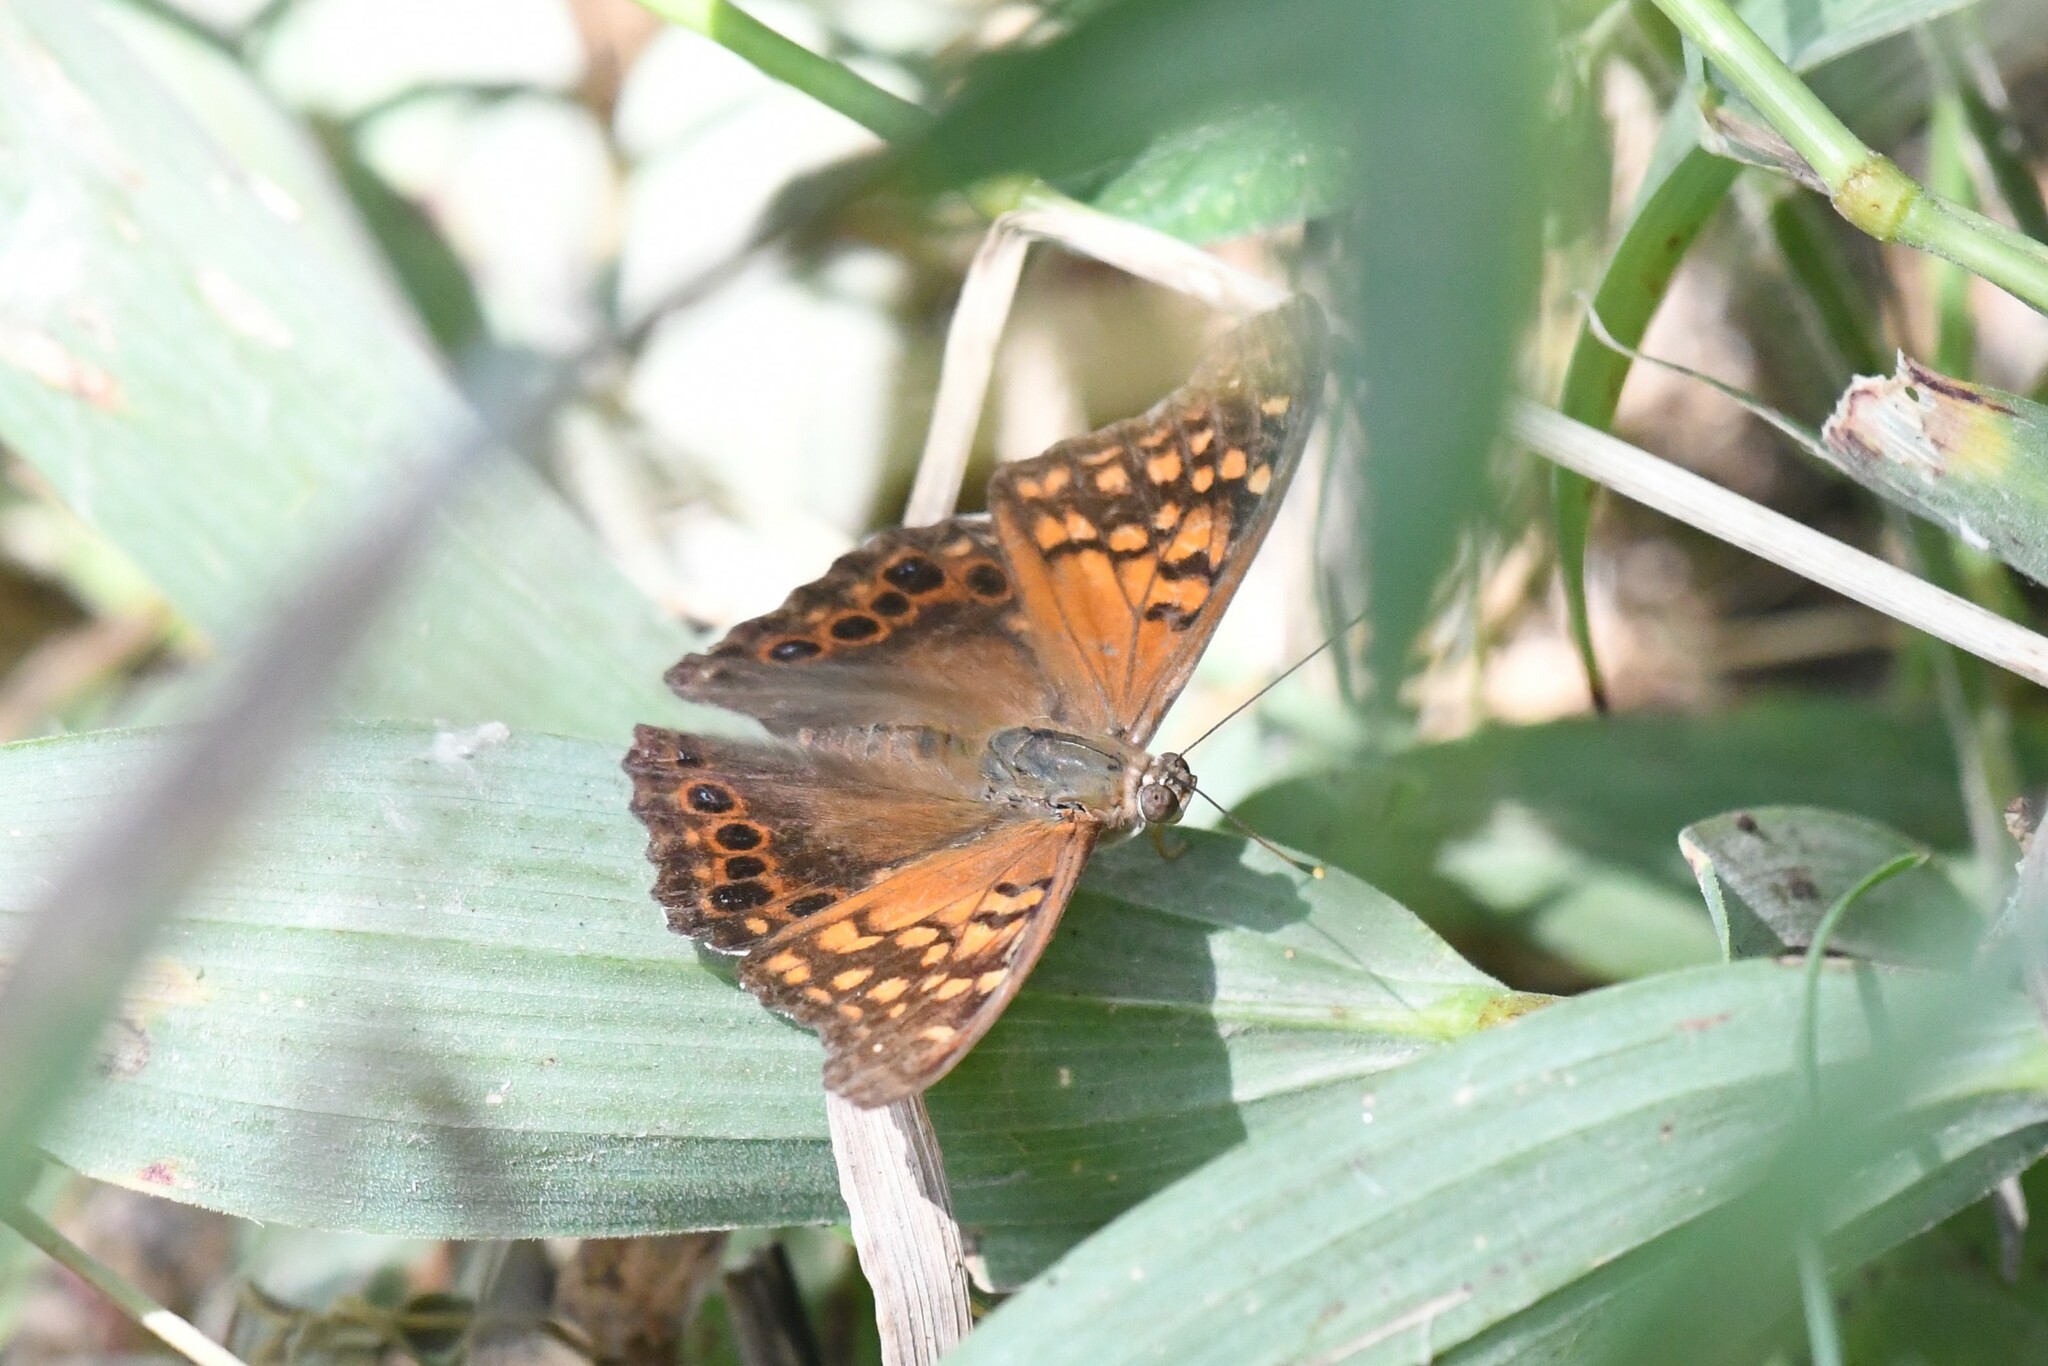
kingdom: Animalia
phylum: Arthropoda
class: Insecta
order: Lepidoptera
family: Nymphalidae
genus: Asterocampa
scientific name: Asterocampa clyton
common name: Tawny emperor
